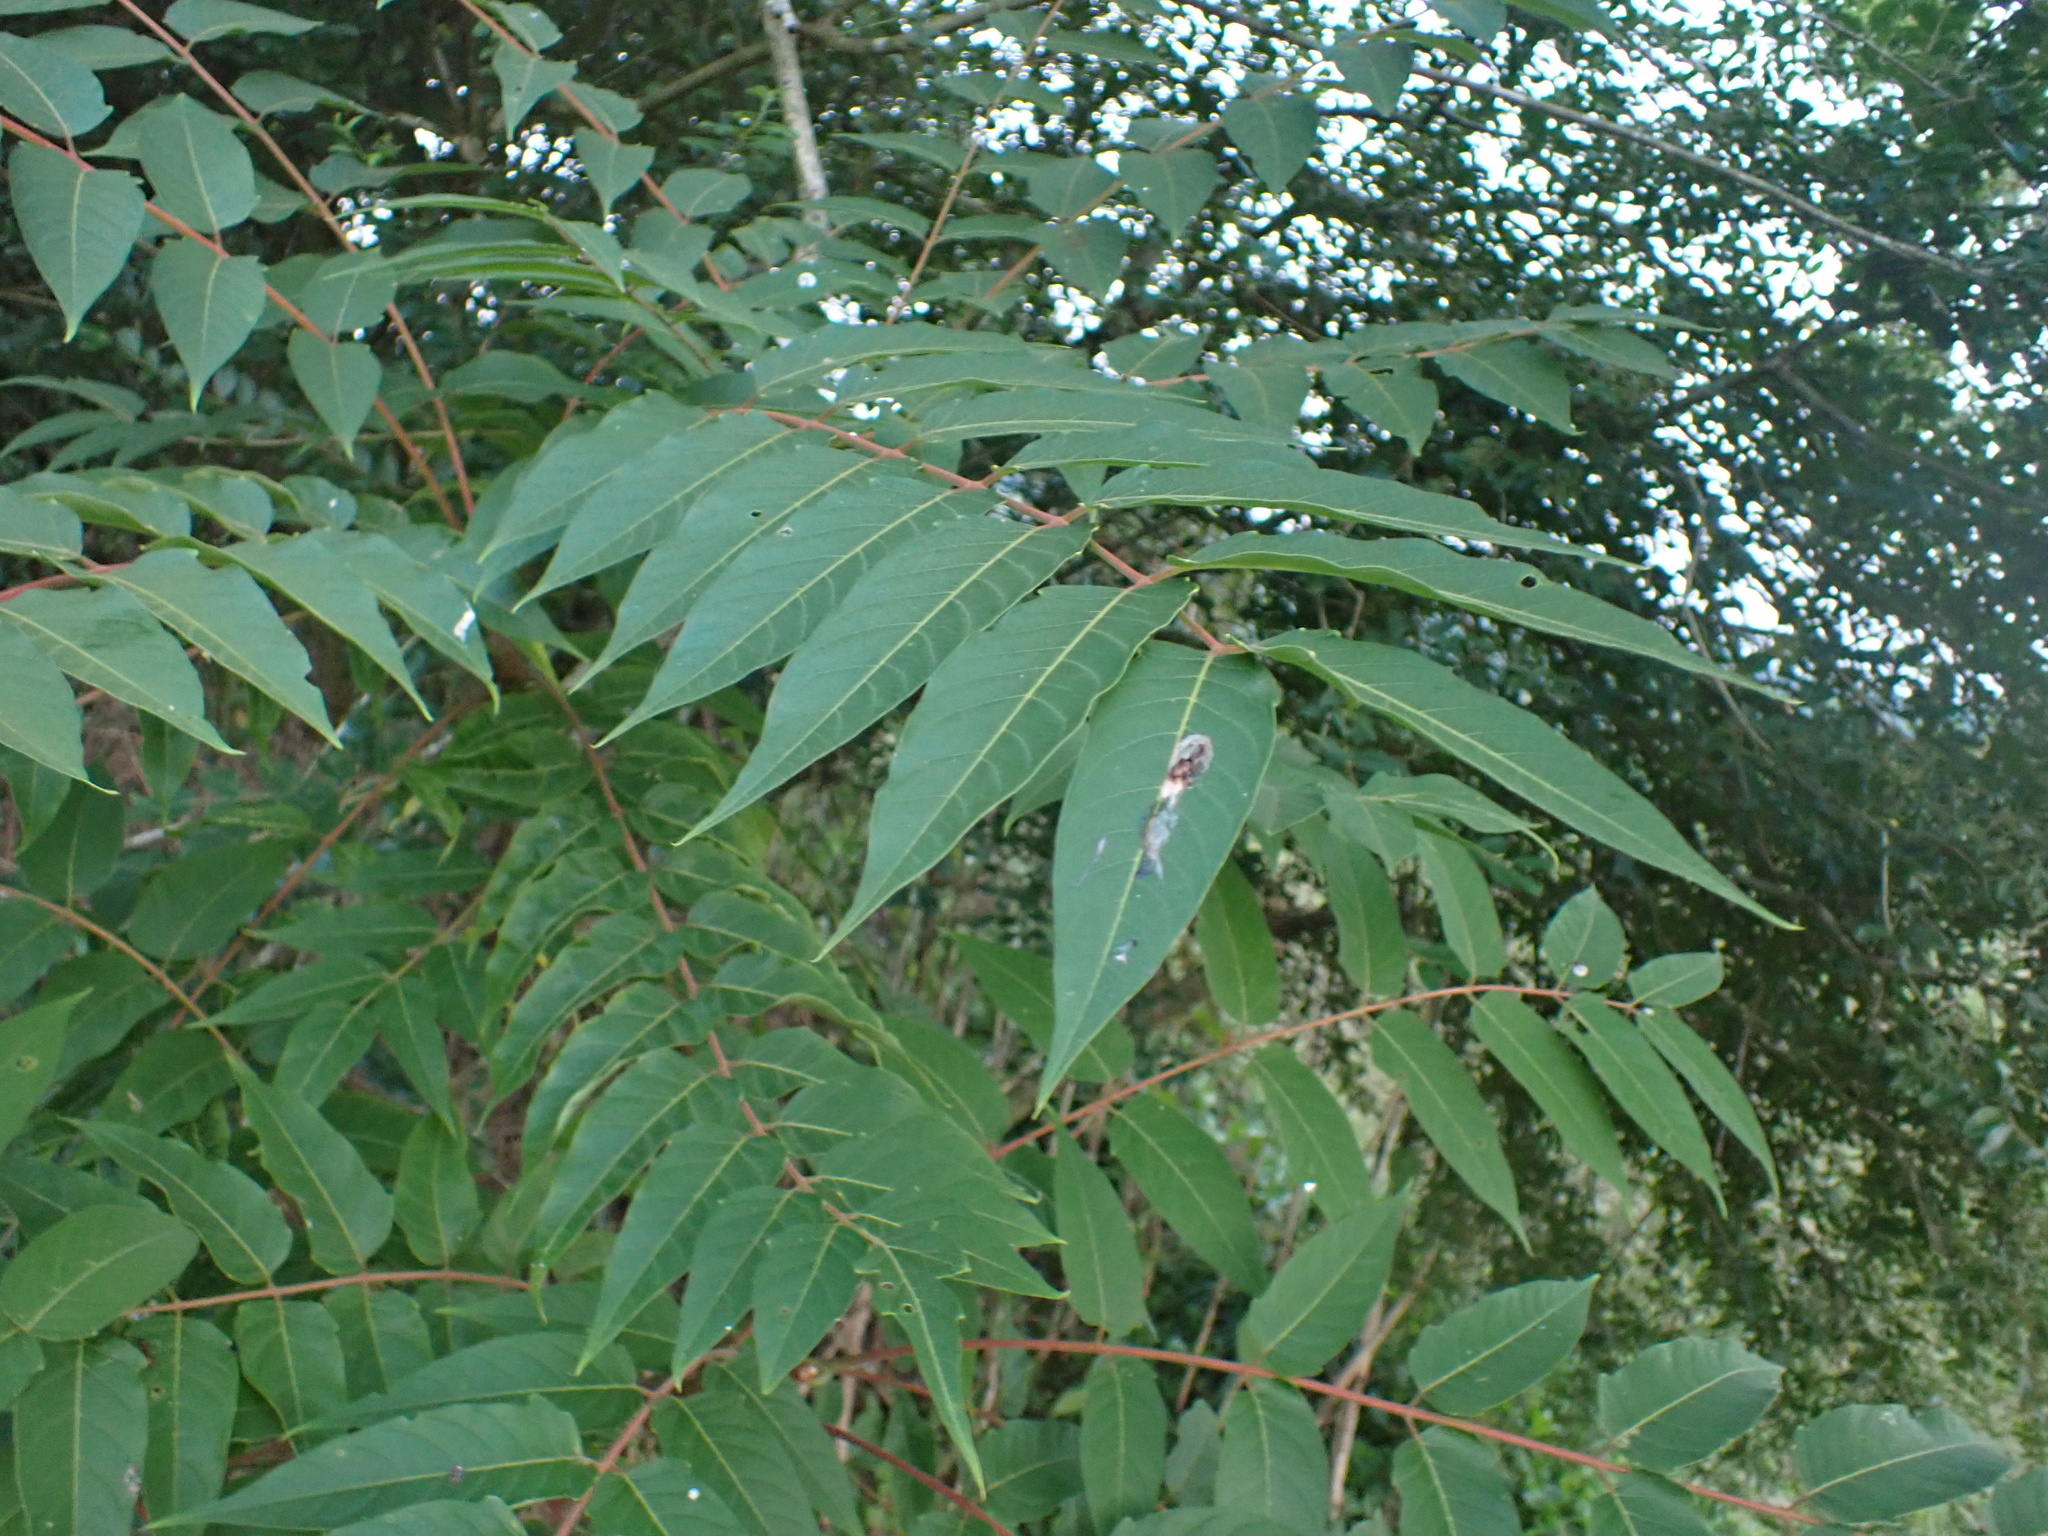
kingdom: Plantae
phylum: Tracheophyta
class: Magnoliopsida
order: Sapindales
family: Simaroubaceae
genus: Ailanthus
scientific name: Ailanthus altissima
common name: Tree-of-heaven
